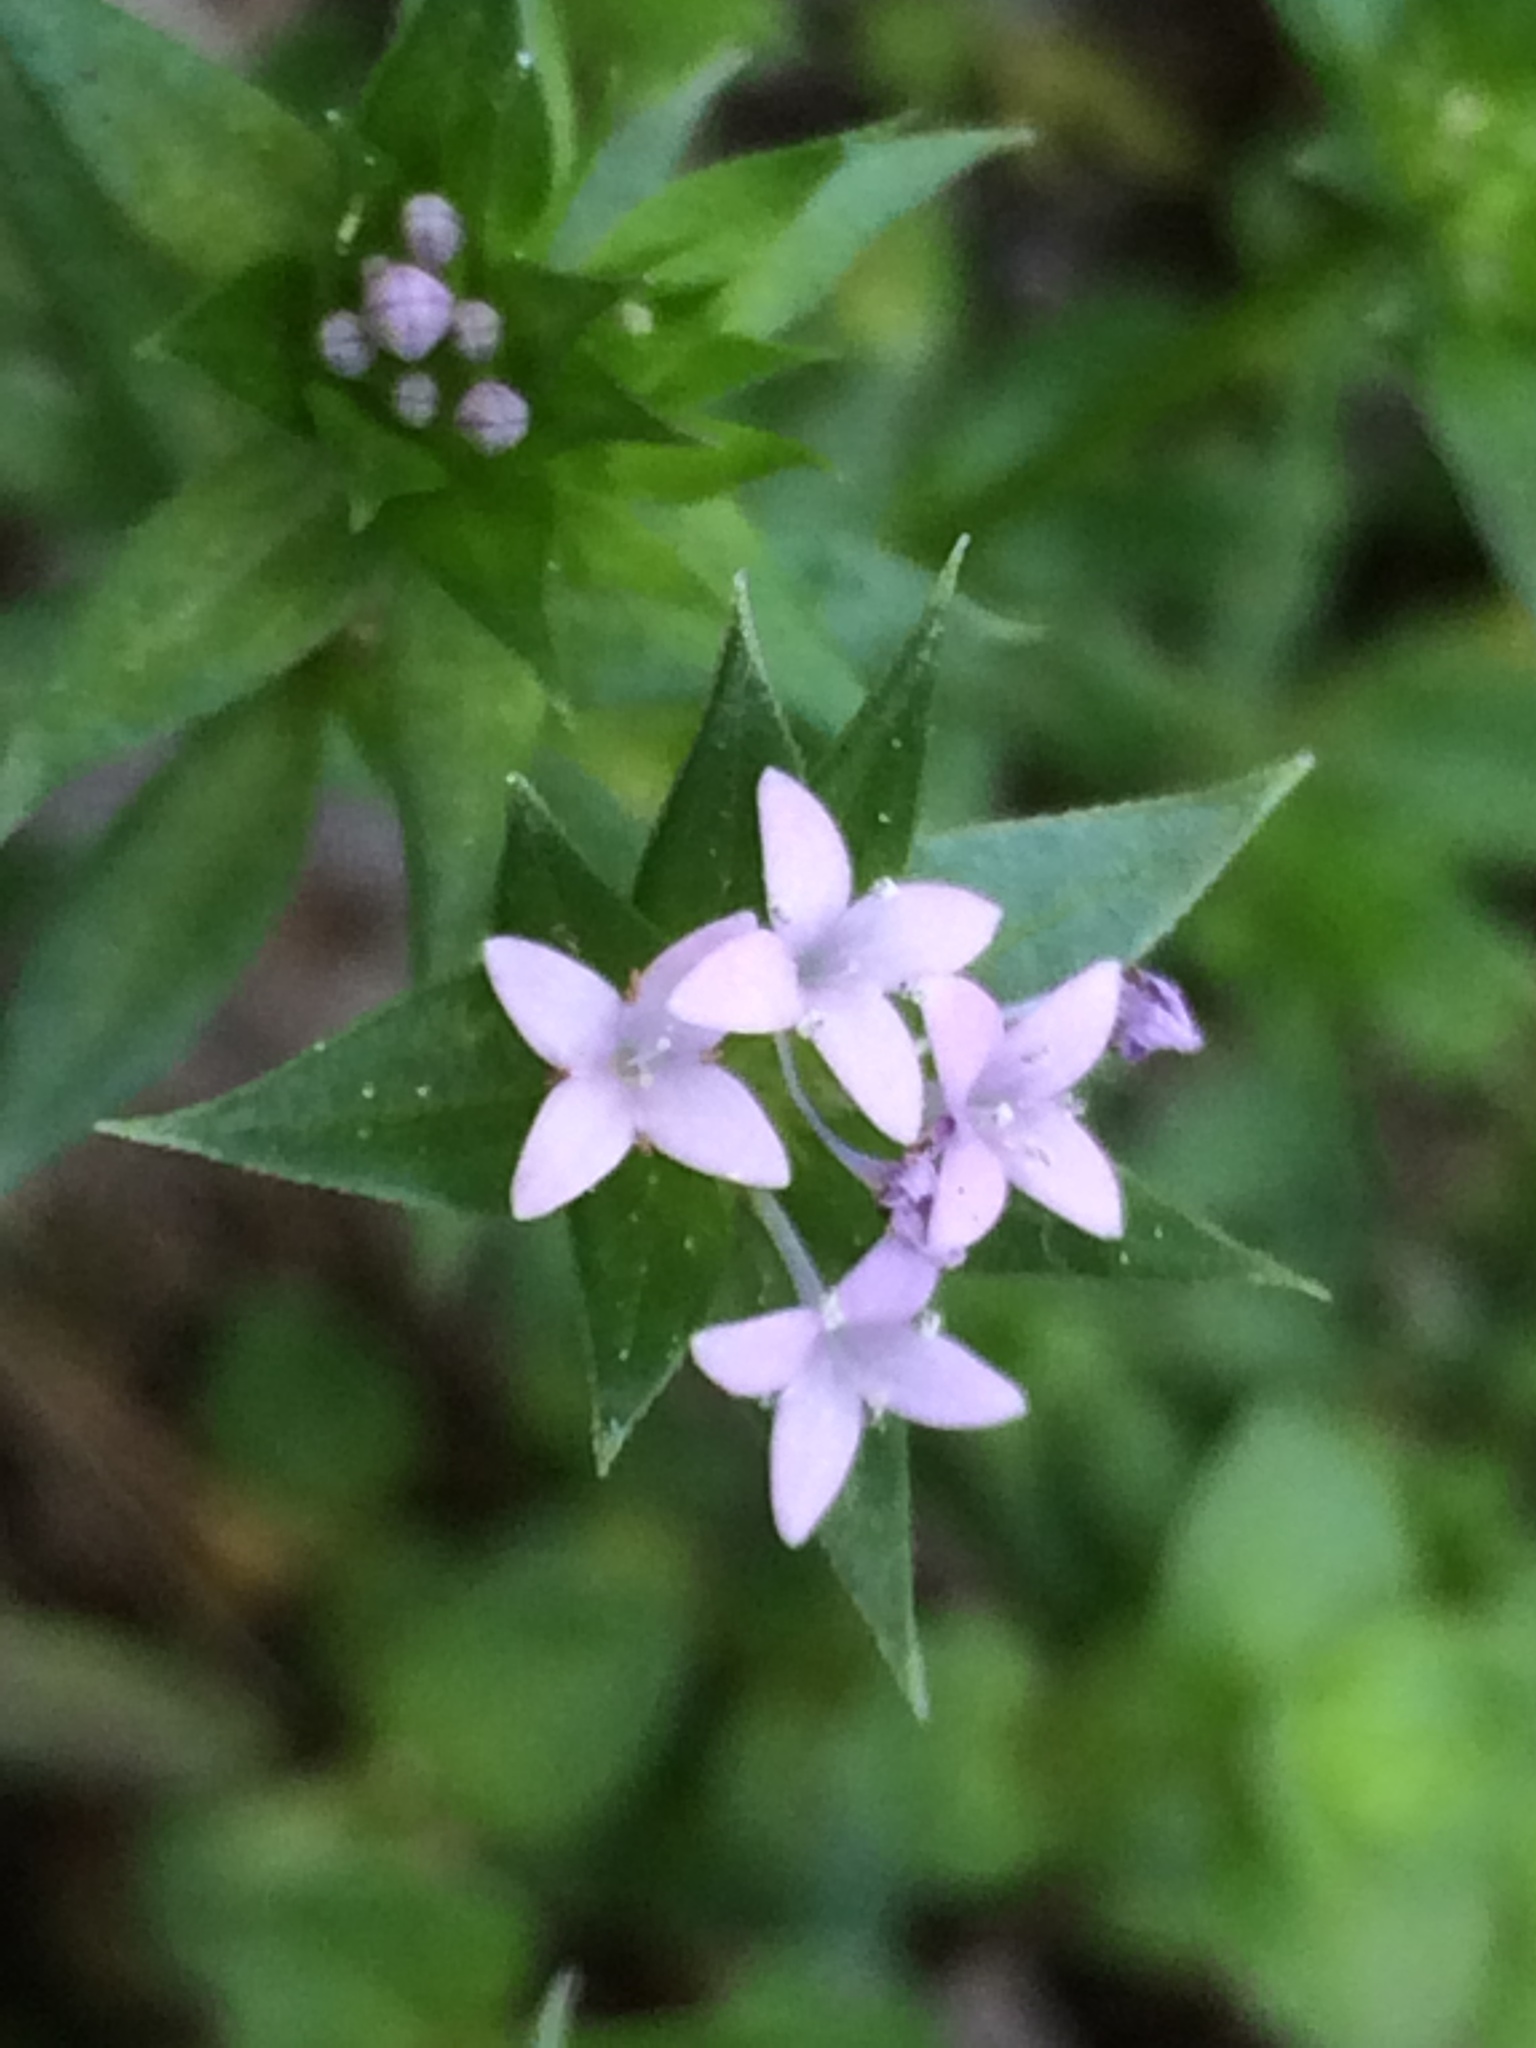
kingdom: Plantae
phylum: Tracheophyta
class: Magnoliopsida
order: Gentianales
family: Rubiaceae
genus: Sherardia
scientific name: Sherardia arvensis
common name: Field madder
